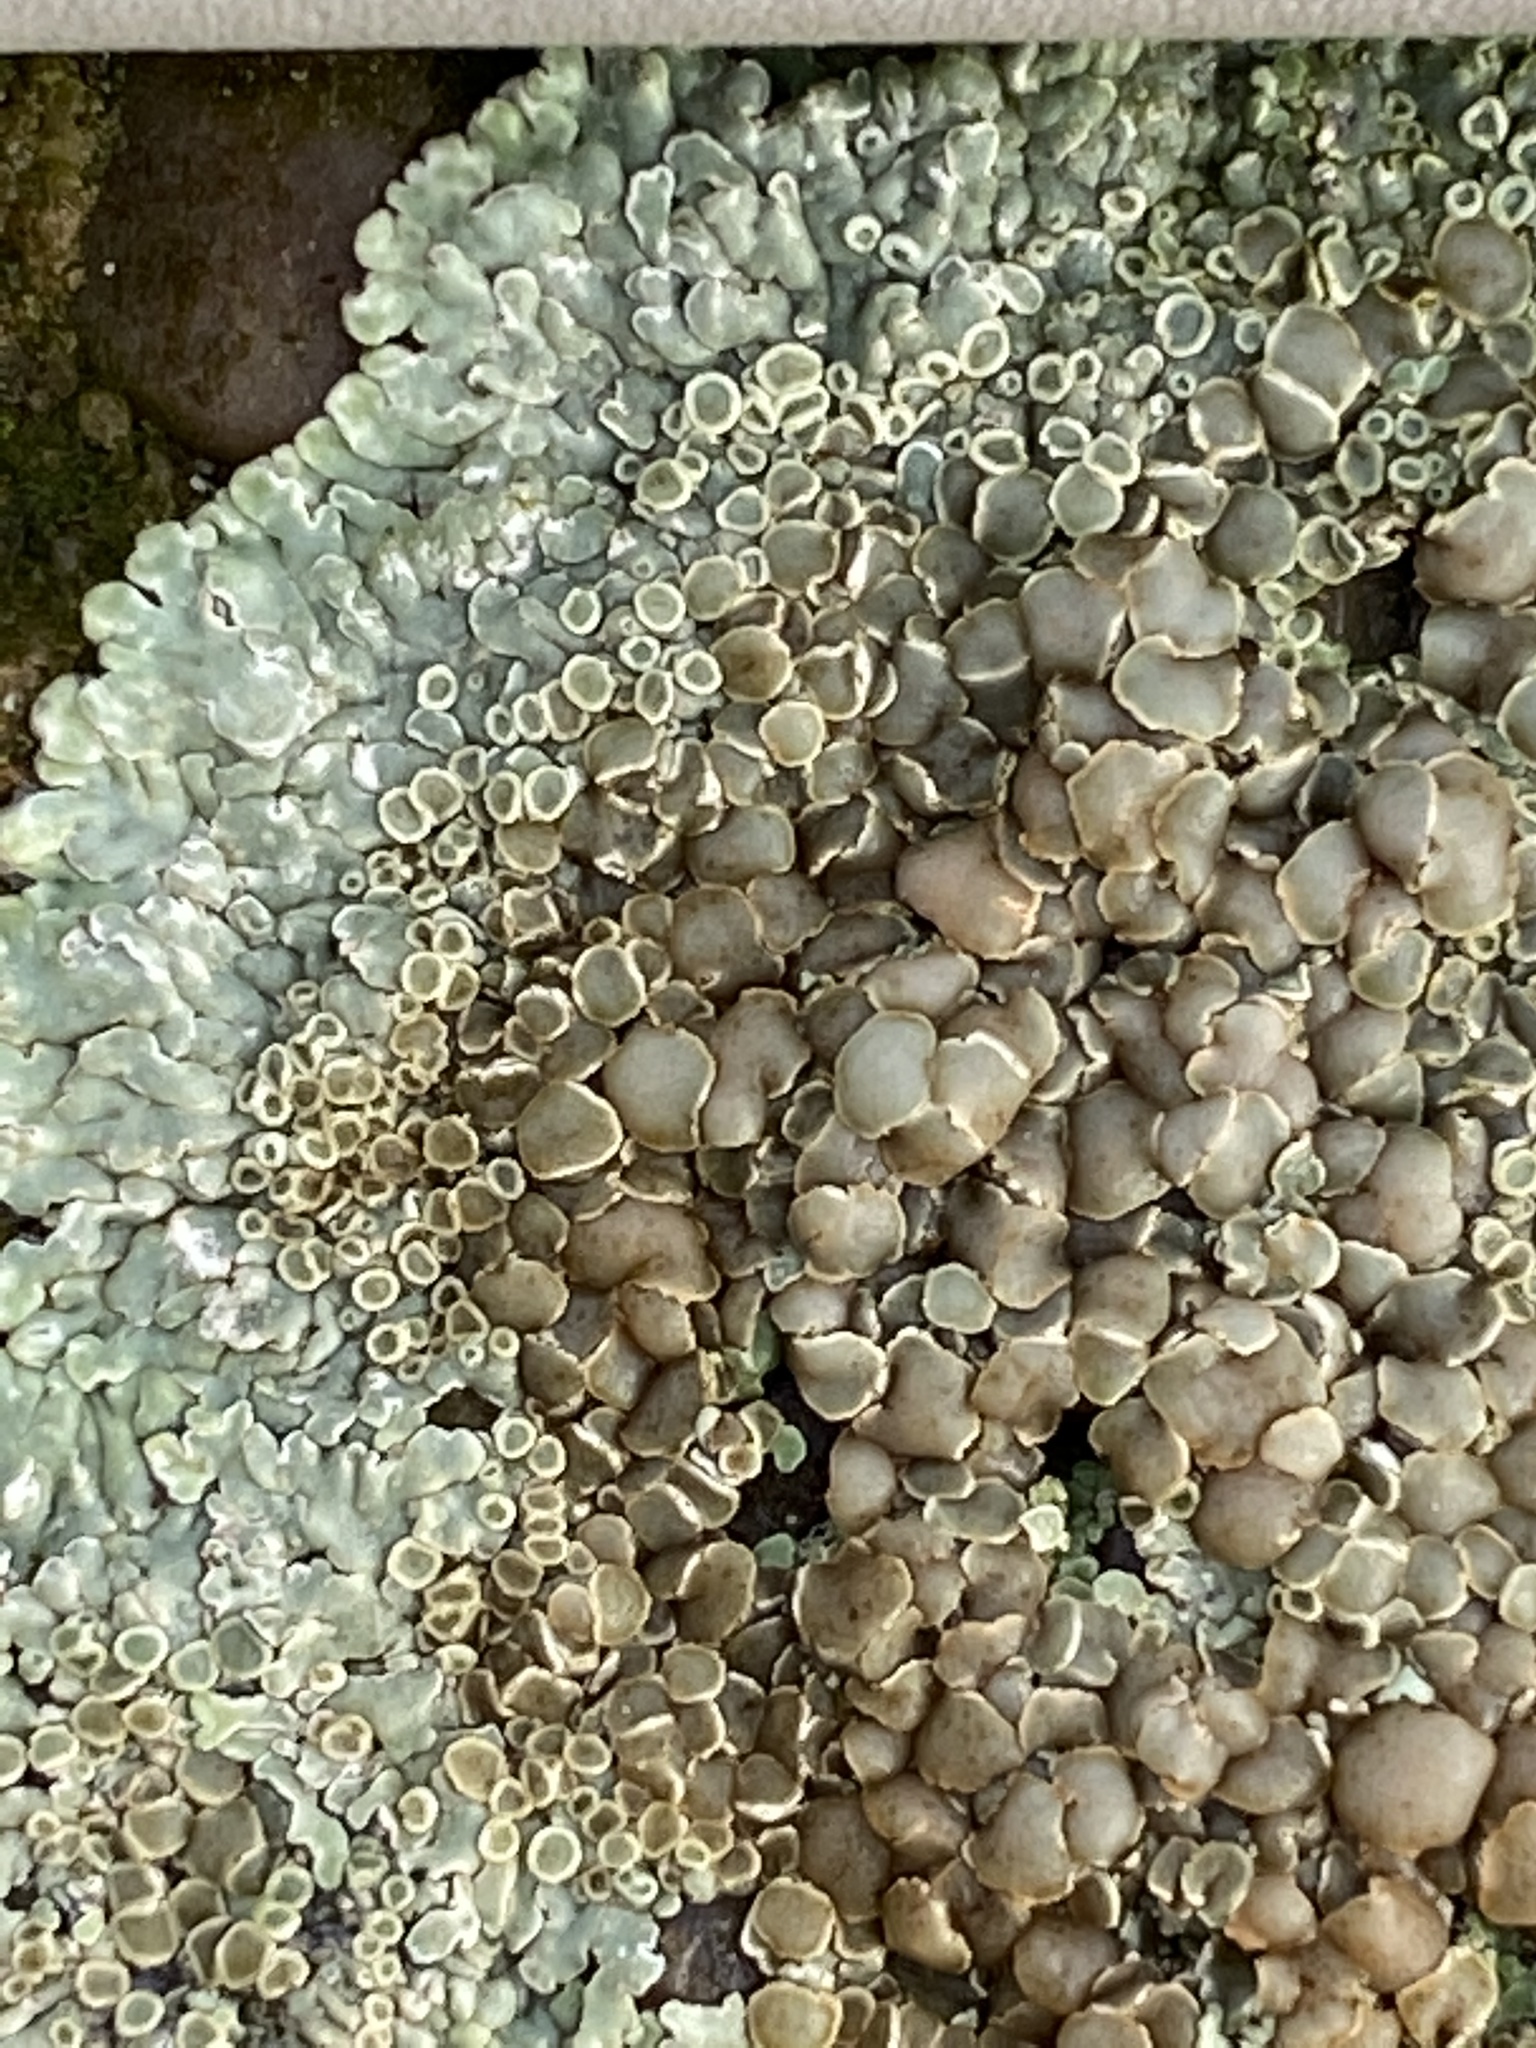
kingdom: Fungi
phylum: Ascomycota
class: Lecanoromycetes
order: Lecanorales
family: Lecanoraceae
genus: Protoparmeliopsis
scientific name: Protoparmeliopsis muralis
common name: Stonewall rim lichen
